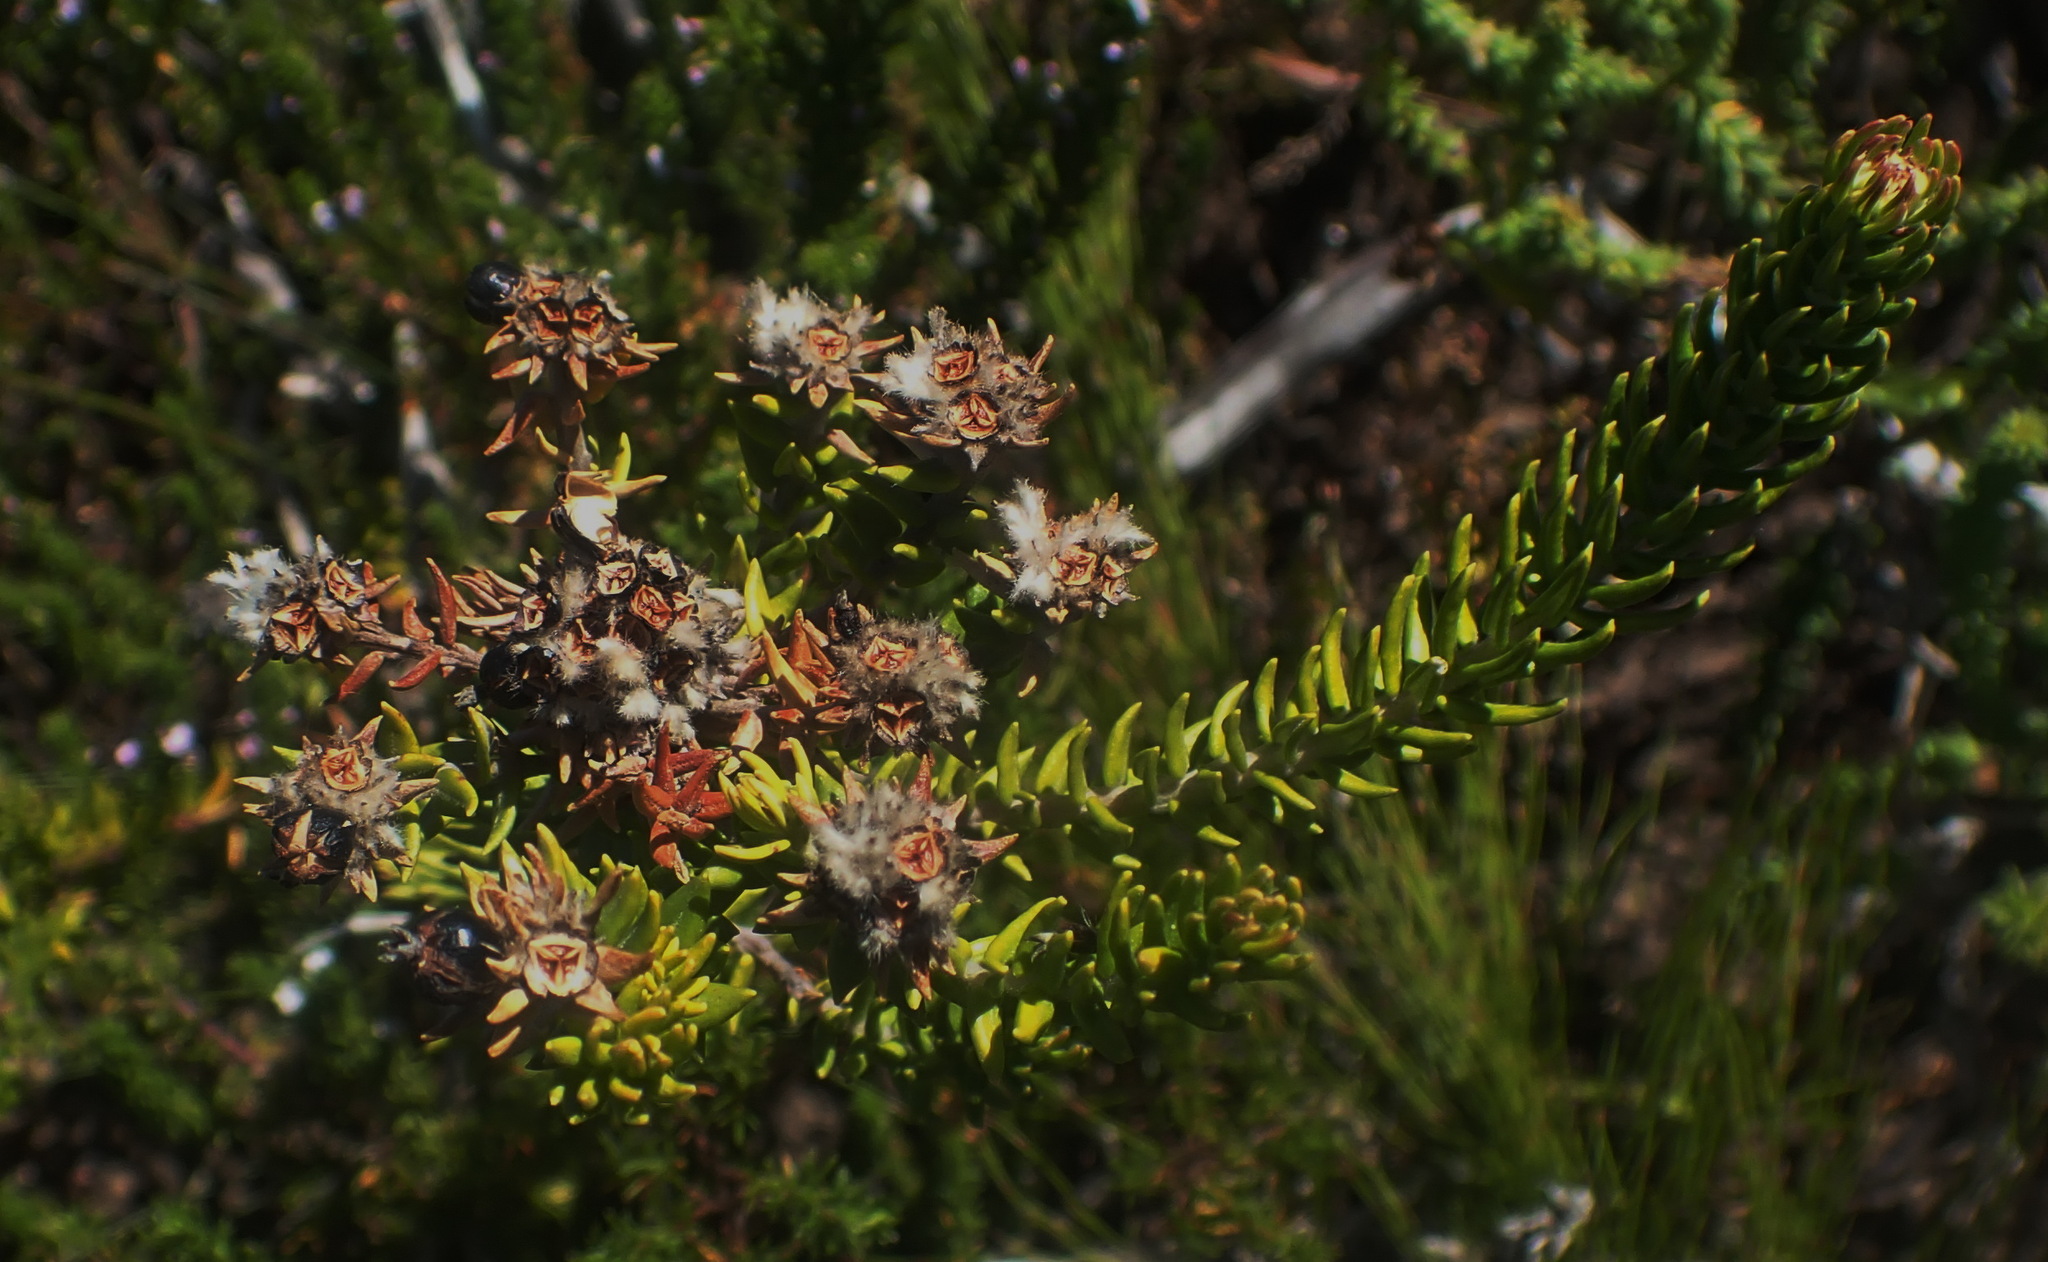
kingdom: Plantae
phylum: Tracheophyta
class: Magnoliopsida
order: Rosales
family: Rhamnaceae
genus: Phylica
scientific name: Phylica litoralis
